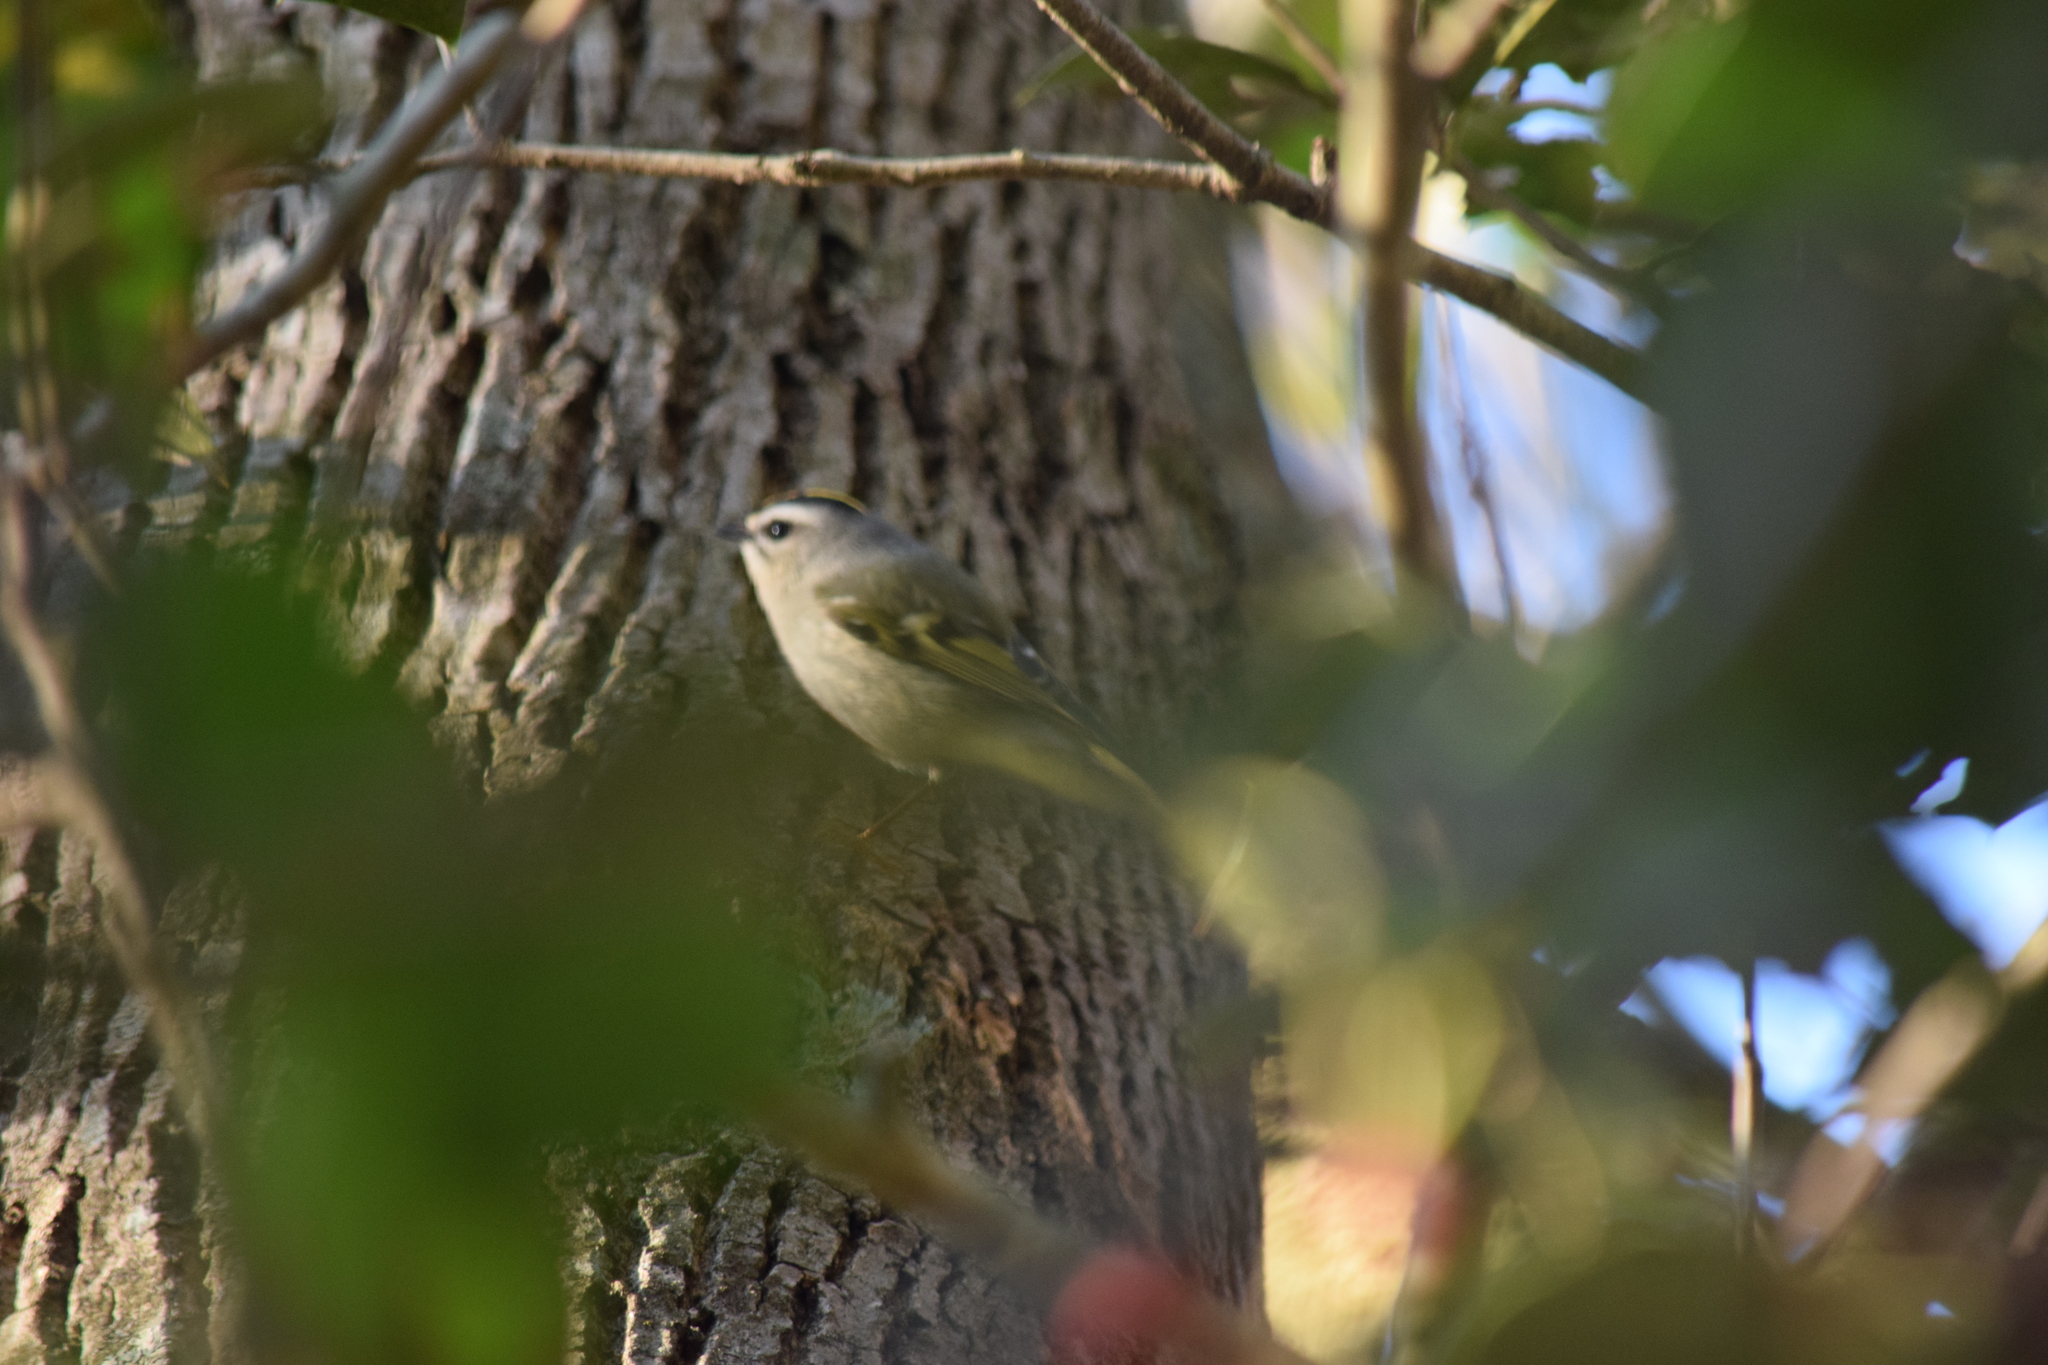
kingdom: Animalia
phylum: Chordata
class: Aves
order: Passeriformes
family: Regulidae
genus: Regulus
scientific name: Regulus satrapa
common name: Golden-crowned kinglet
